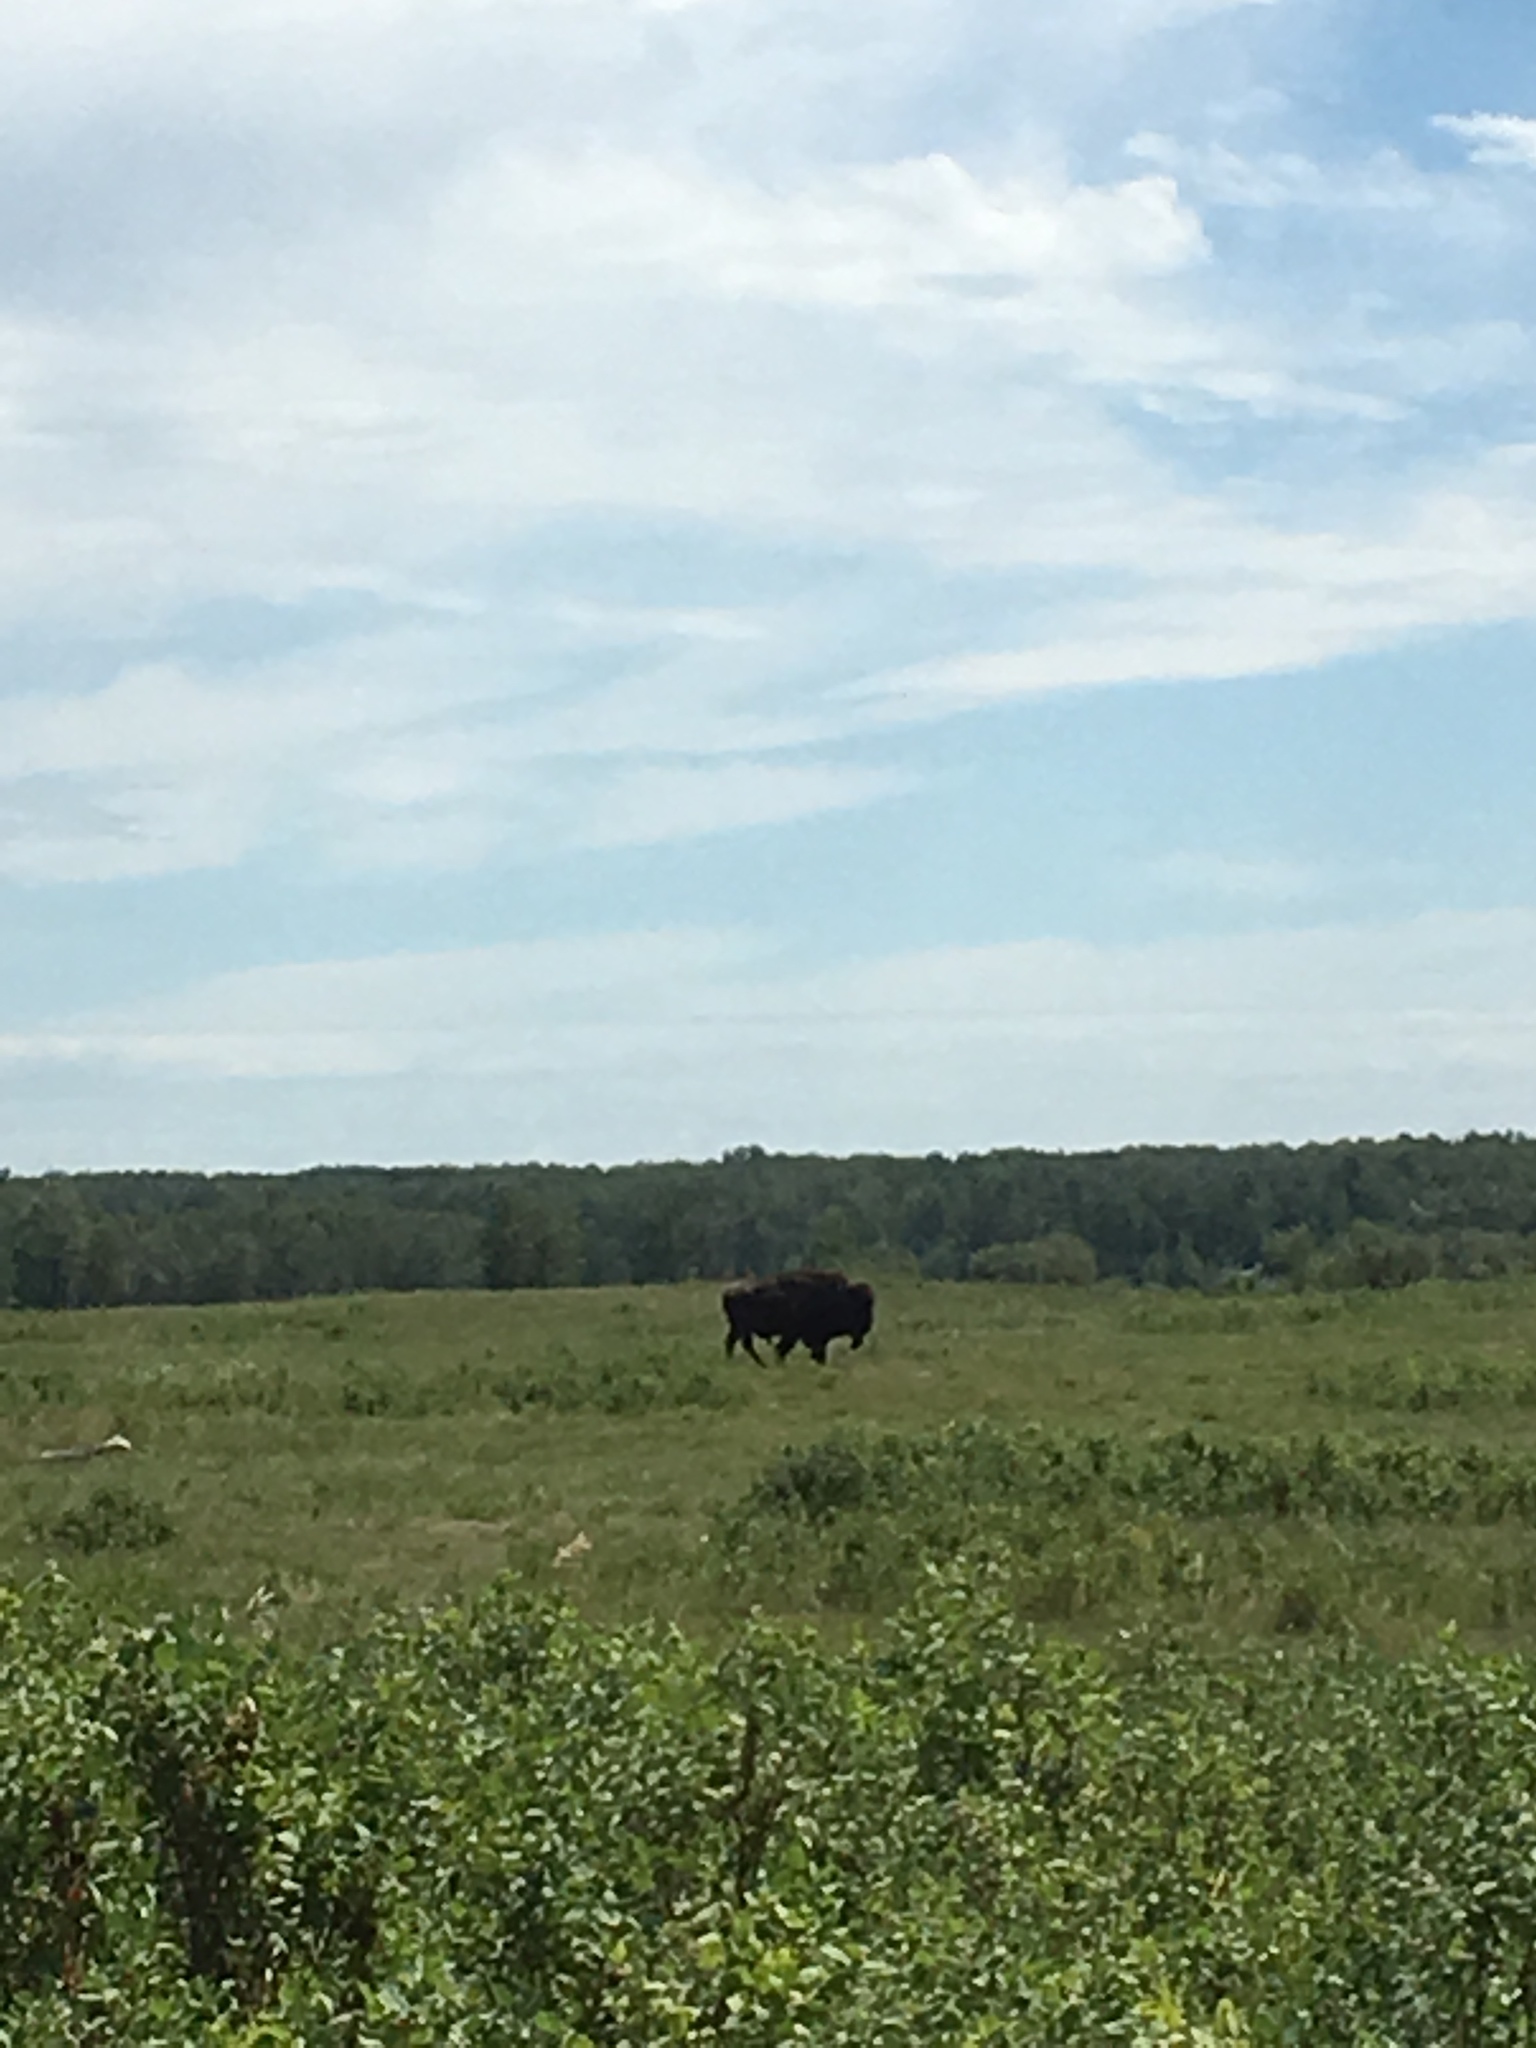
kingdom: Animalia
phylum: Chordata
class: Mammalia
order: Artiodactyla
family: Bovidae
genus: Bison
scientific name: Bison bison
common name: American bison
